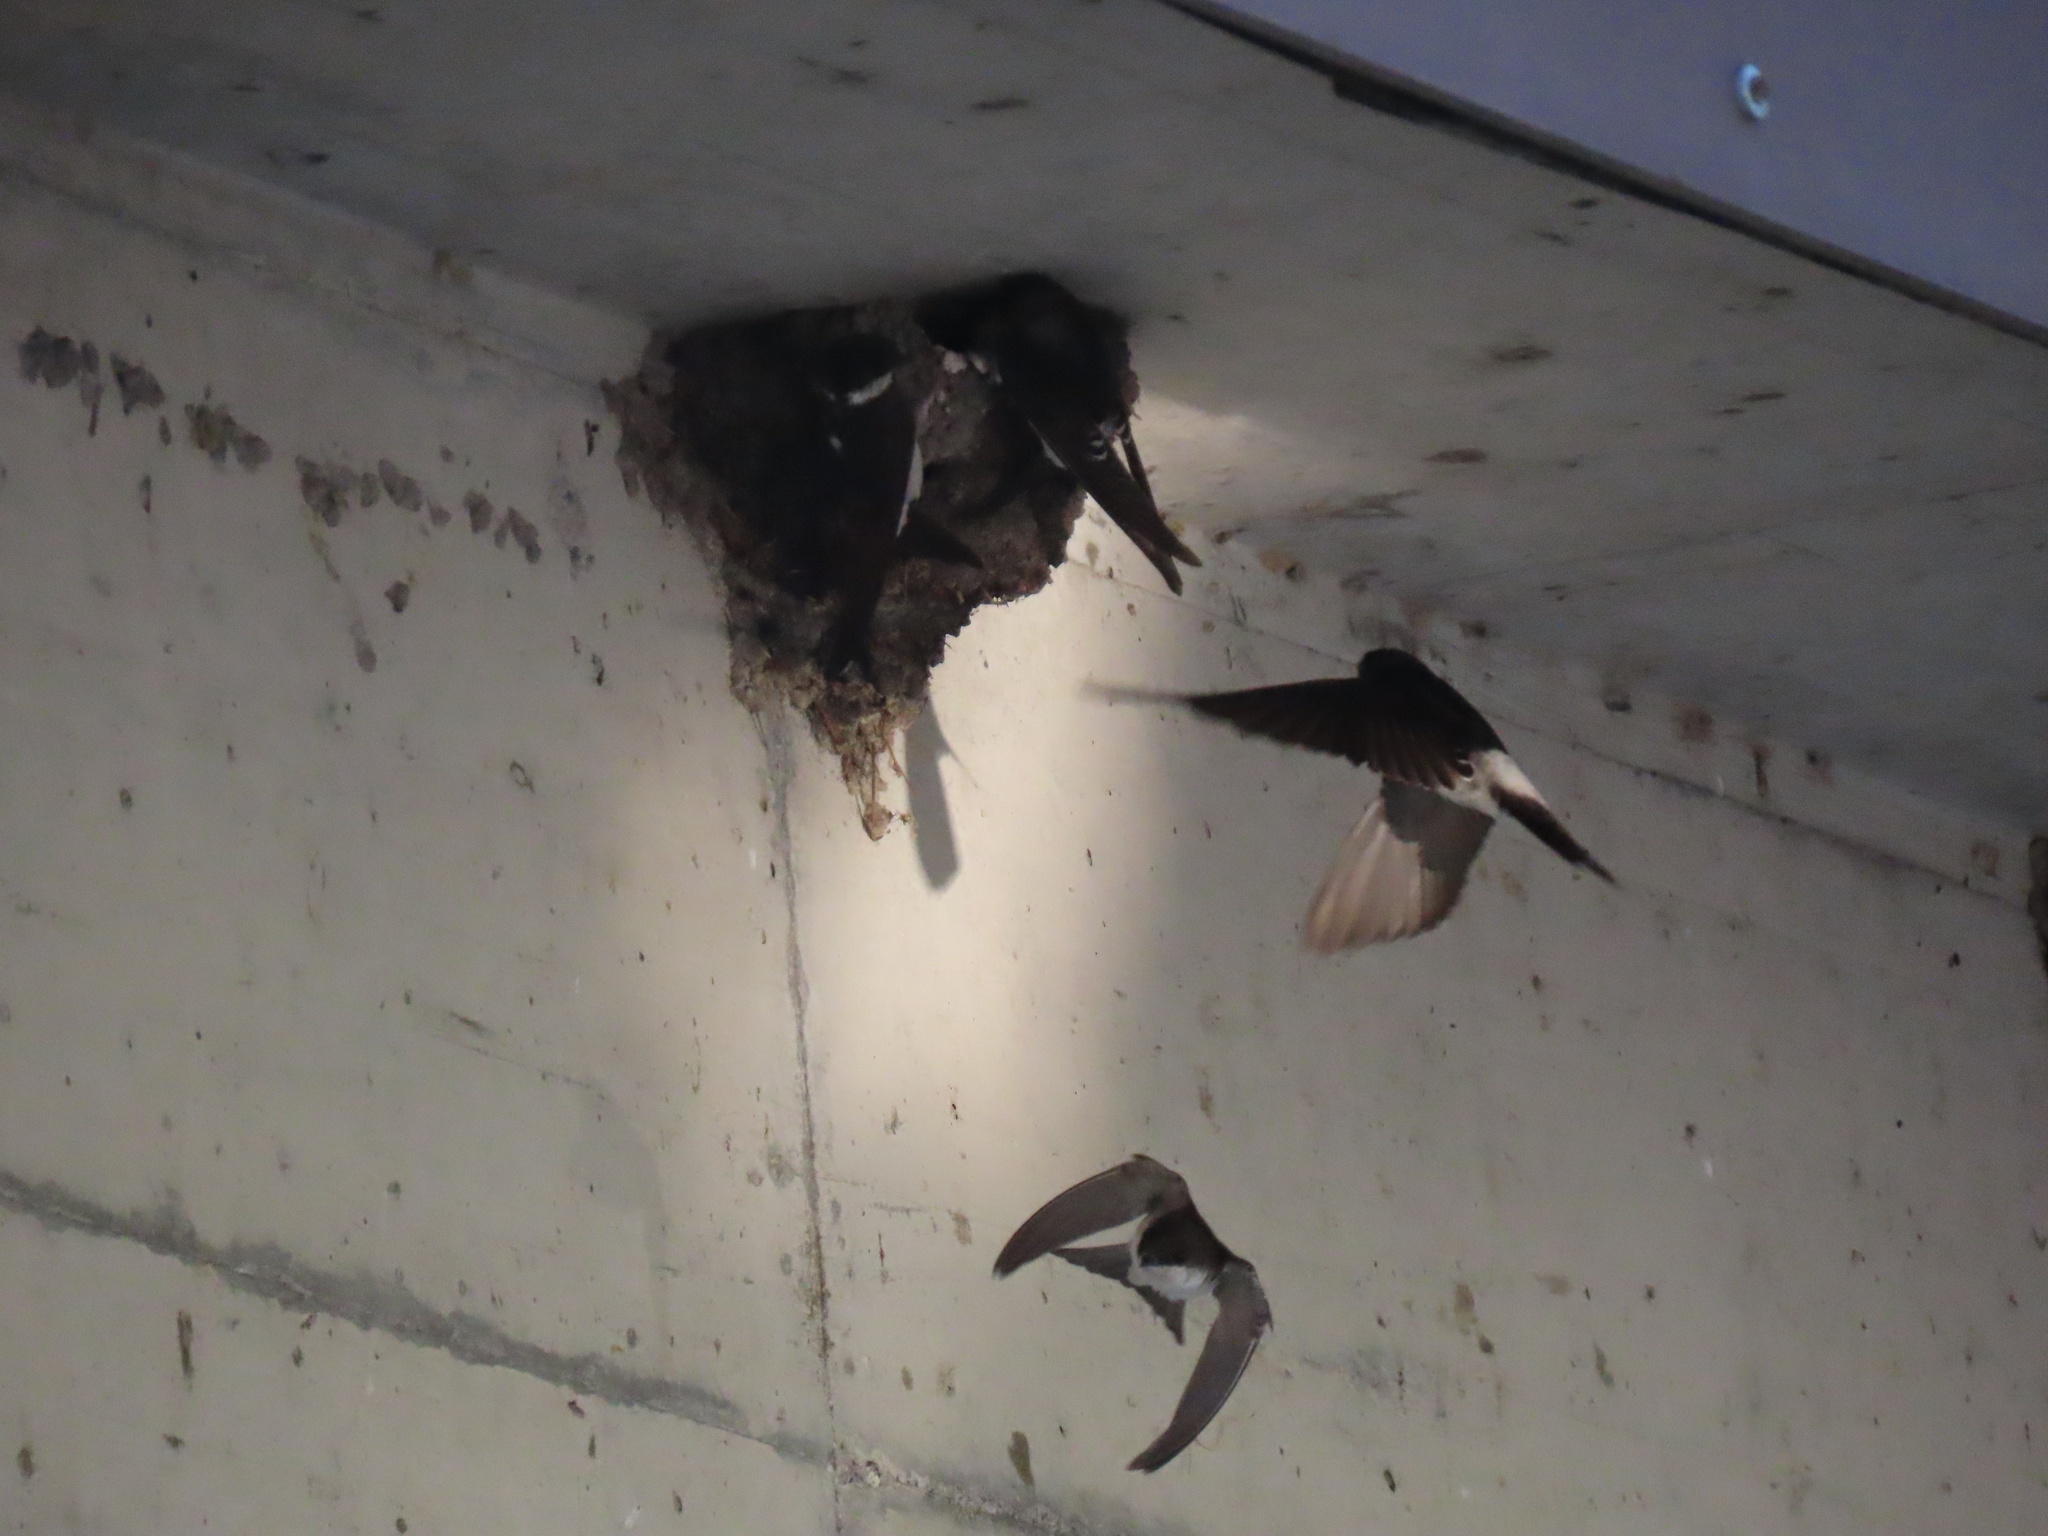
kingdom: Animalia
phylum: Chordata
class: Aves
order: Passeriformes
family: Hirundinidae
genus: Delichon
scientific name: Delichon urbicum
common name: Common house martin
